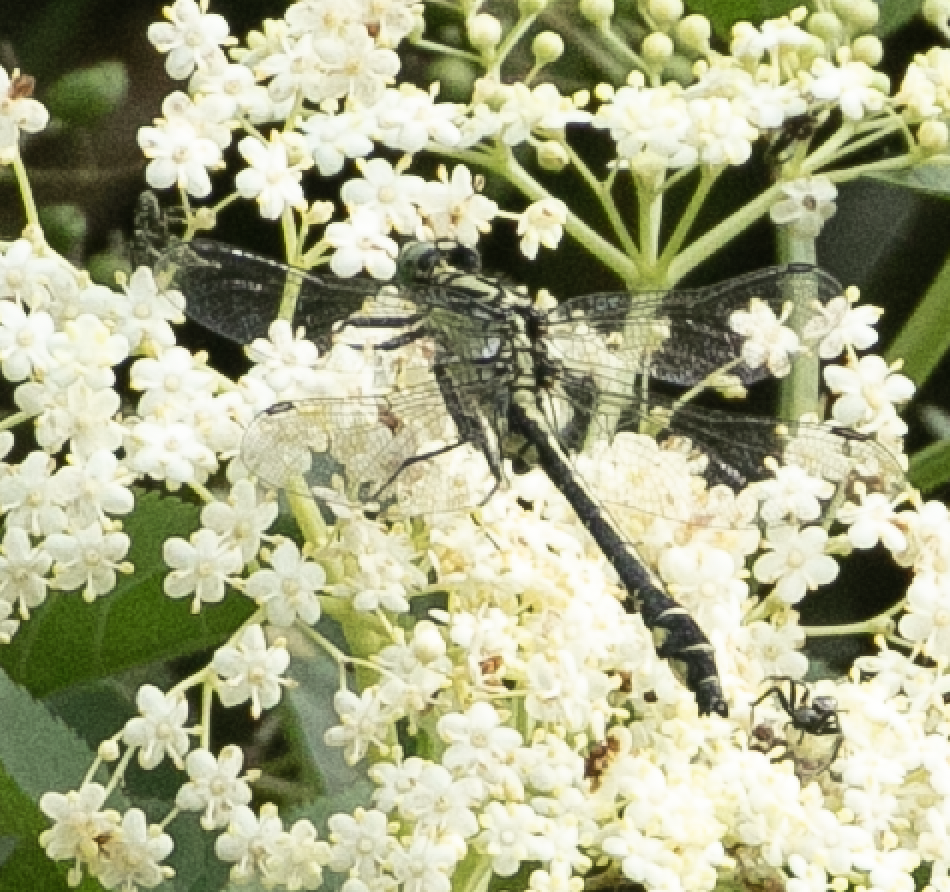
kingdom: Animalia
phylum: Arthropoda
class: Insecta
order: Odonata
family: Gomphidae
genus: Gomphus
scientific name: Gomphus vulgatissimus
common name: Club-tailed dragonfly
